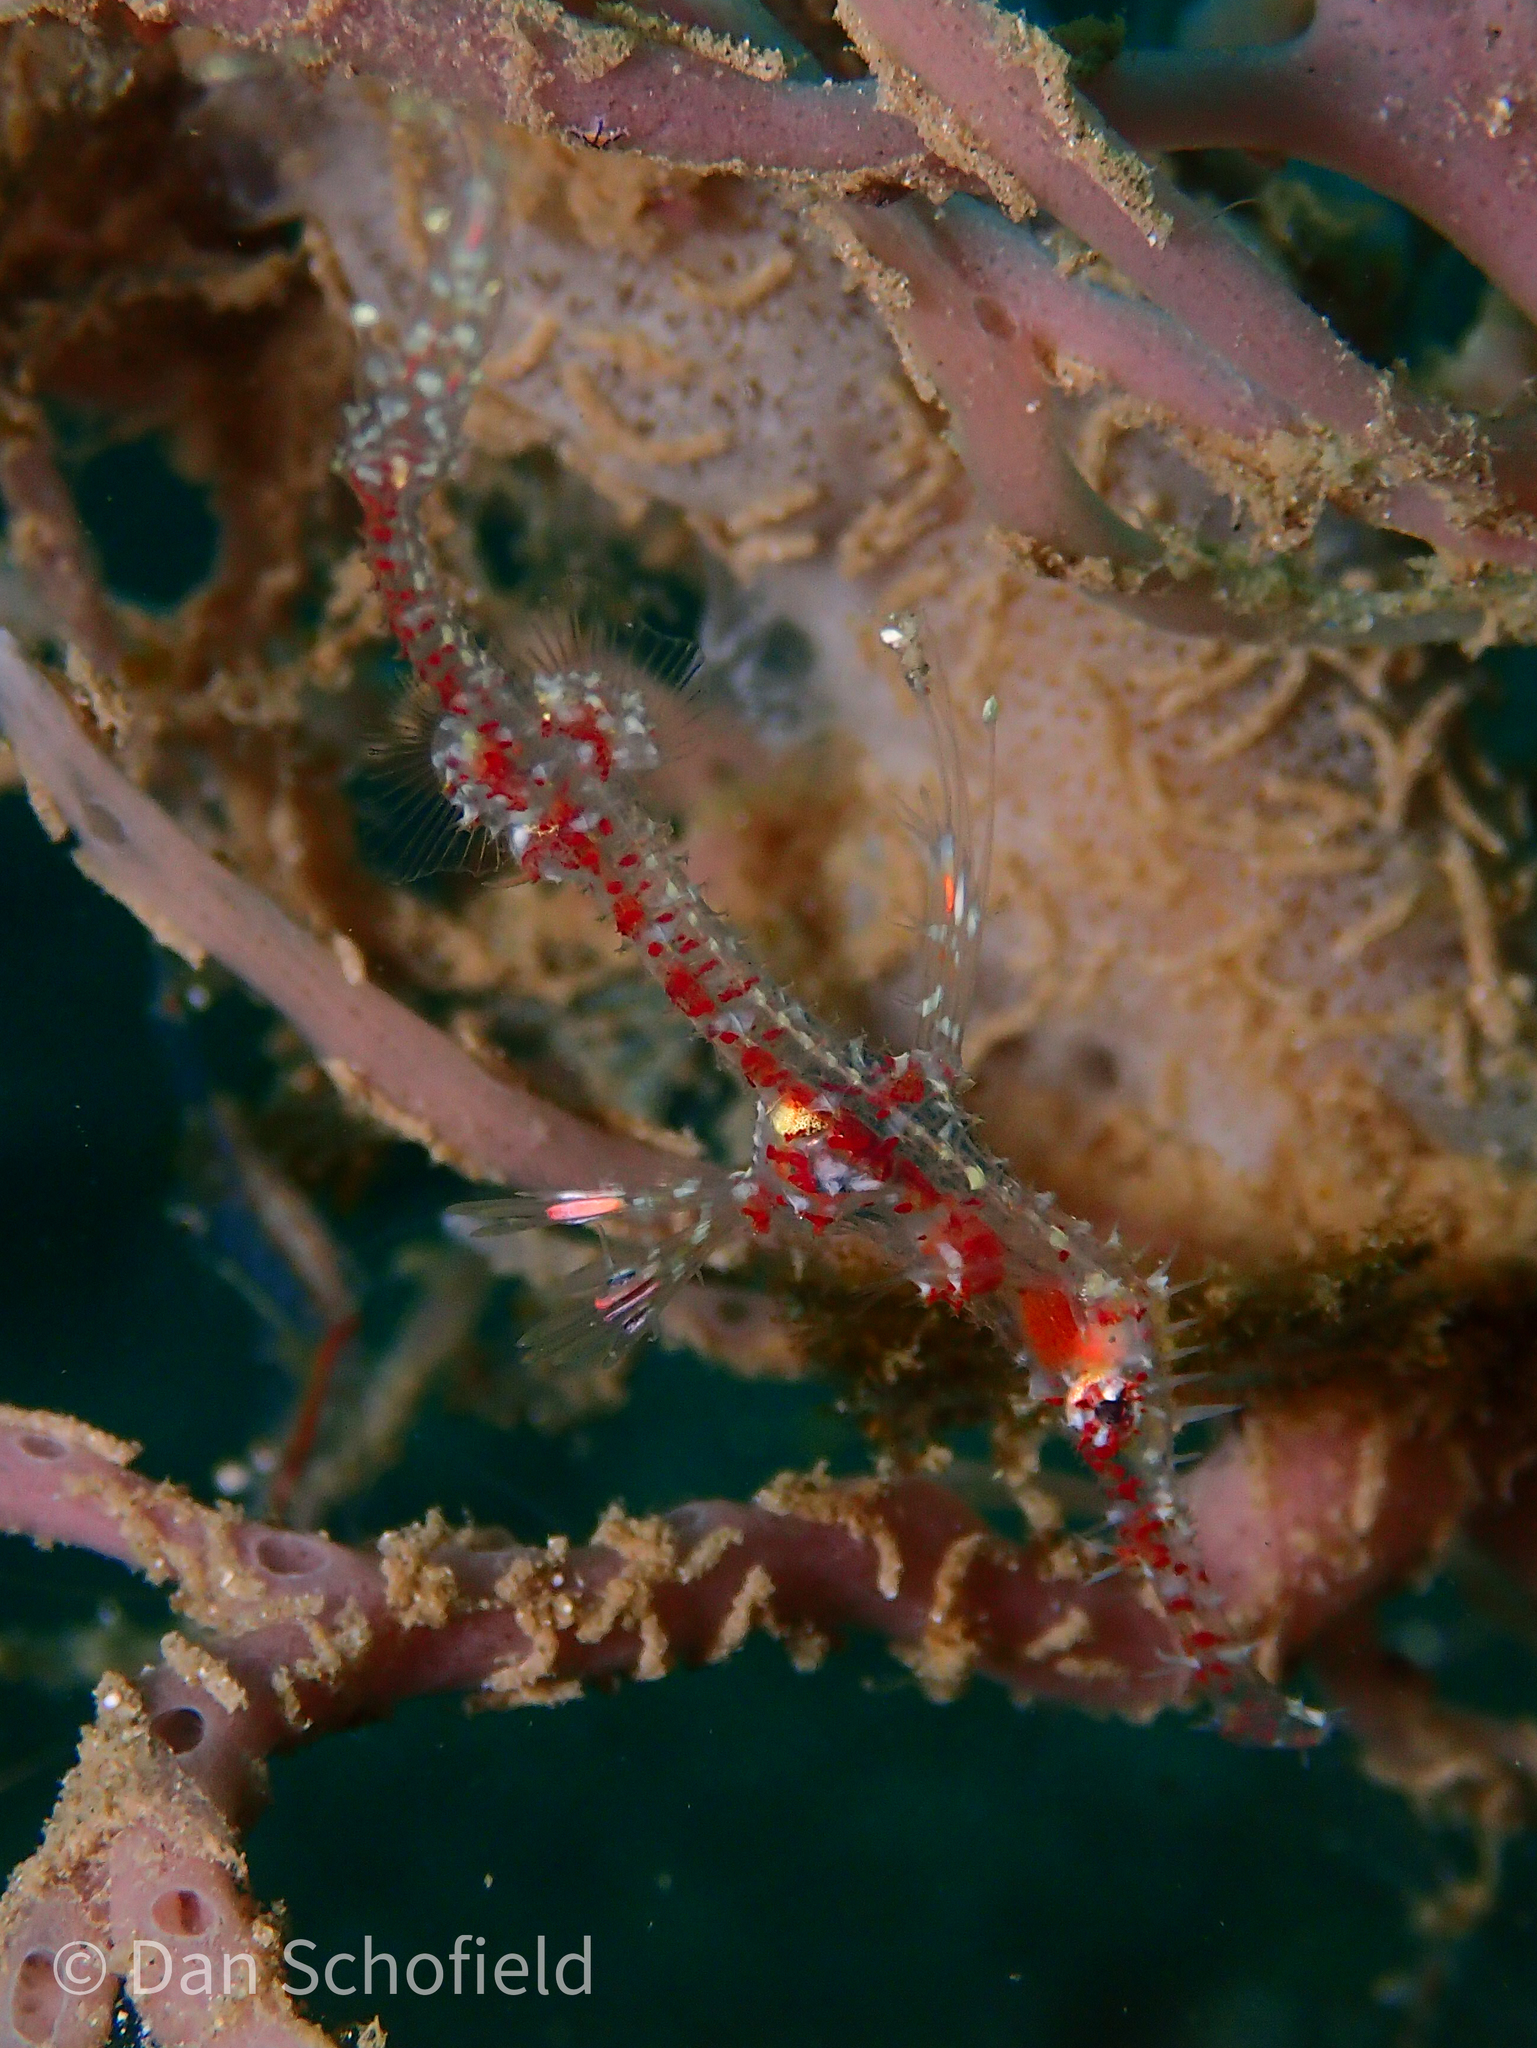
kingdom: Animalia
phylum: Chordata
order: Syngnathiformes
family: Solenostomidae
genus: Solenostomus
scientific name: Solenostomus paradoxus
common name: Ghost pipefish
